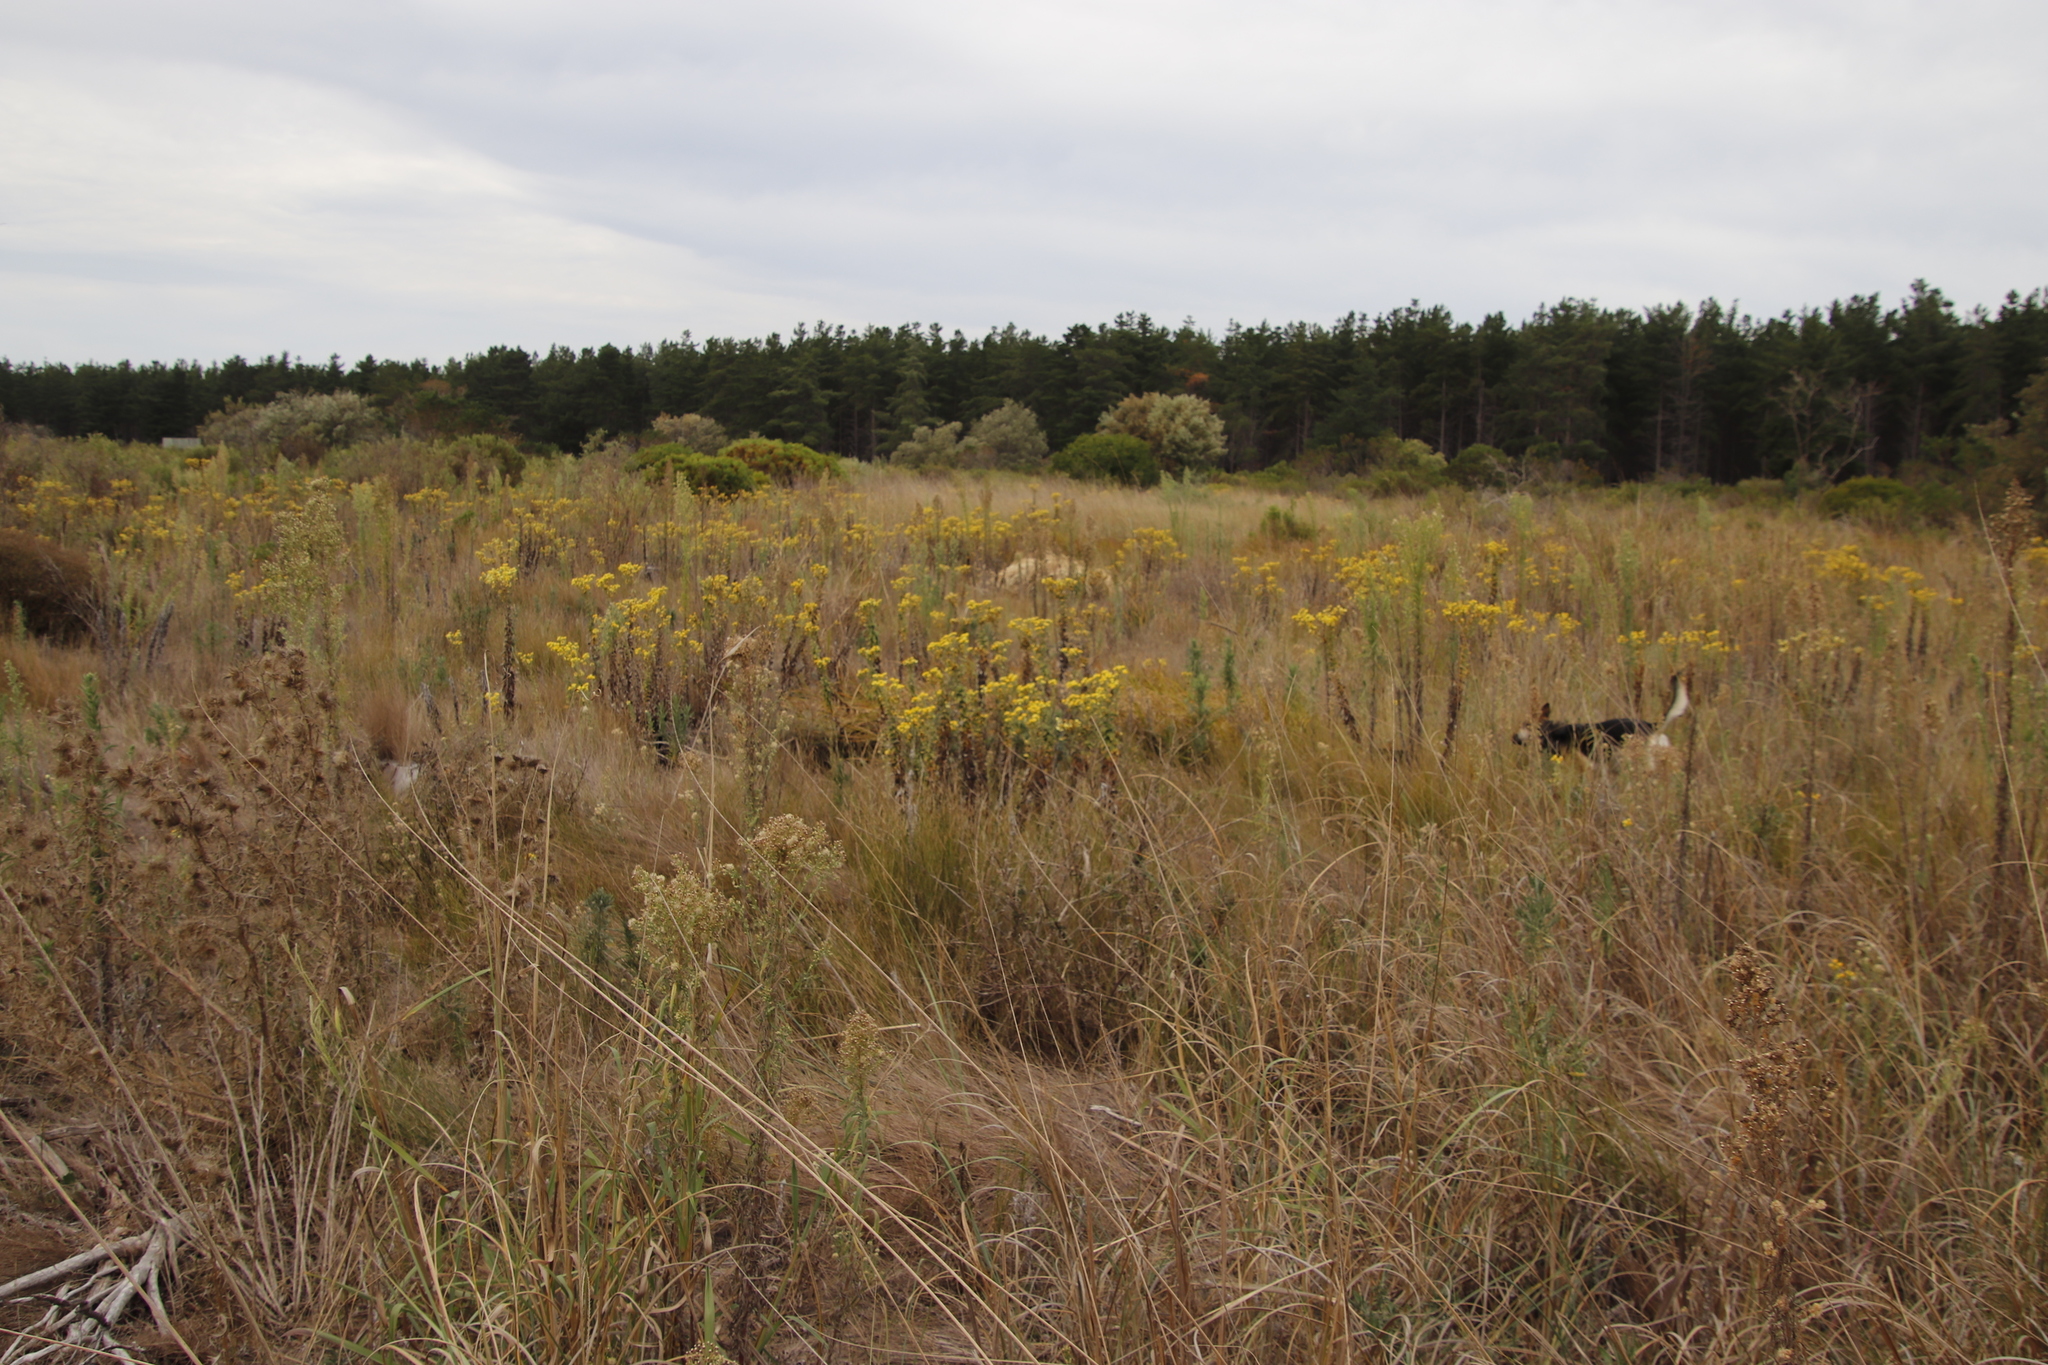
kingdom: Plantae
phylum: Tracheophyta
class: Magnoliopsida
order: Asterales
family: Asteraceae
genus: Helichrysum
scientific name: Helichrysum foetidum
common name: Stinking everlasting
